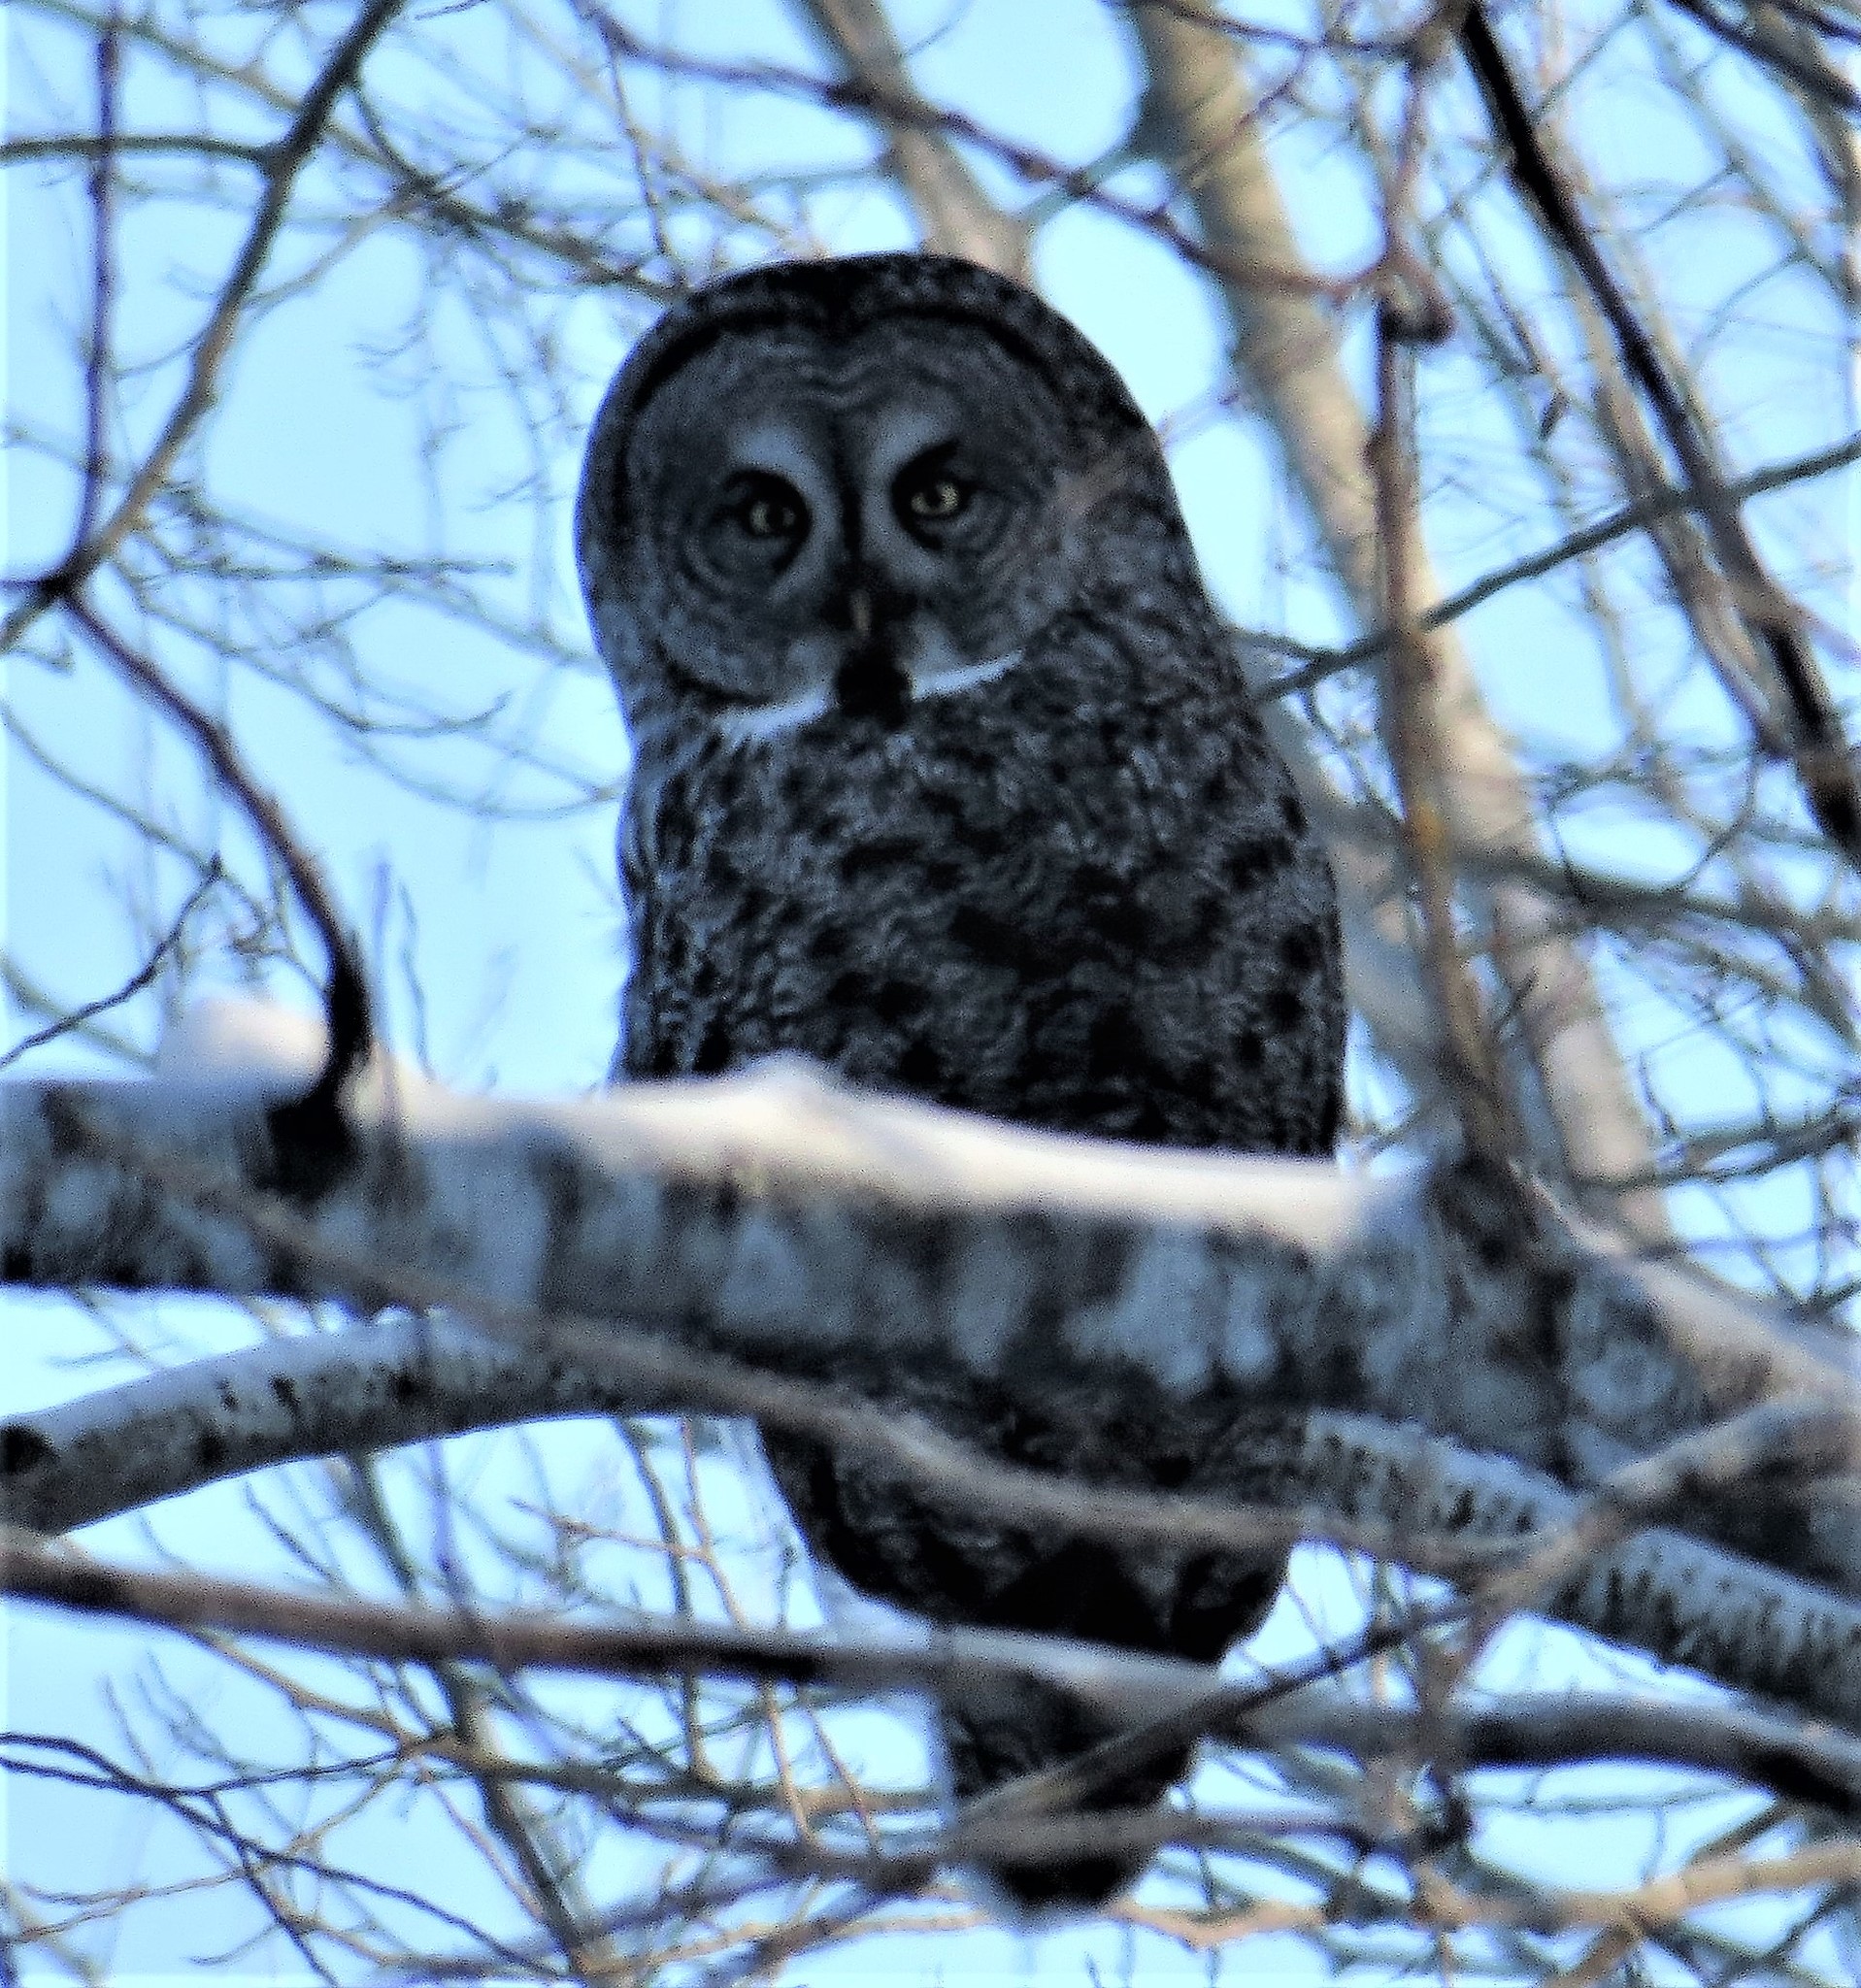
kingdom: Animalia
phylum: Chordata
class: Aves
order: Strigiformes
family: Strigidae
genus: Strix
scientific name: Strix nebulosa
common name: Great grey owl
